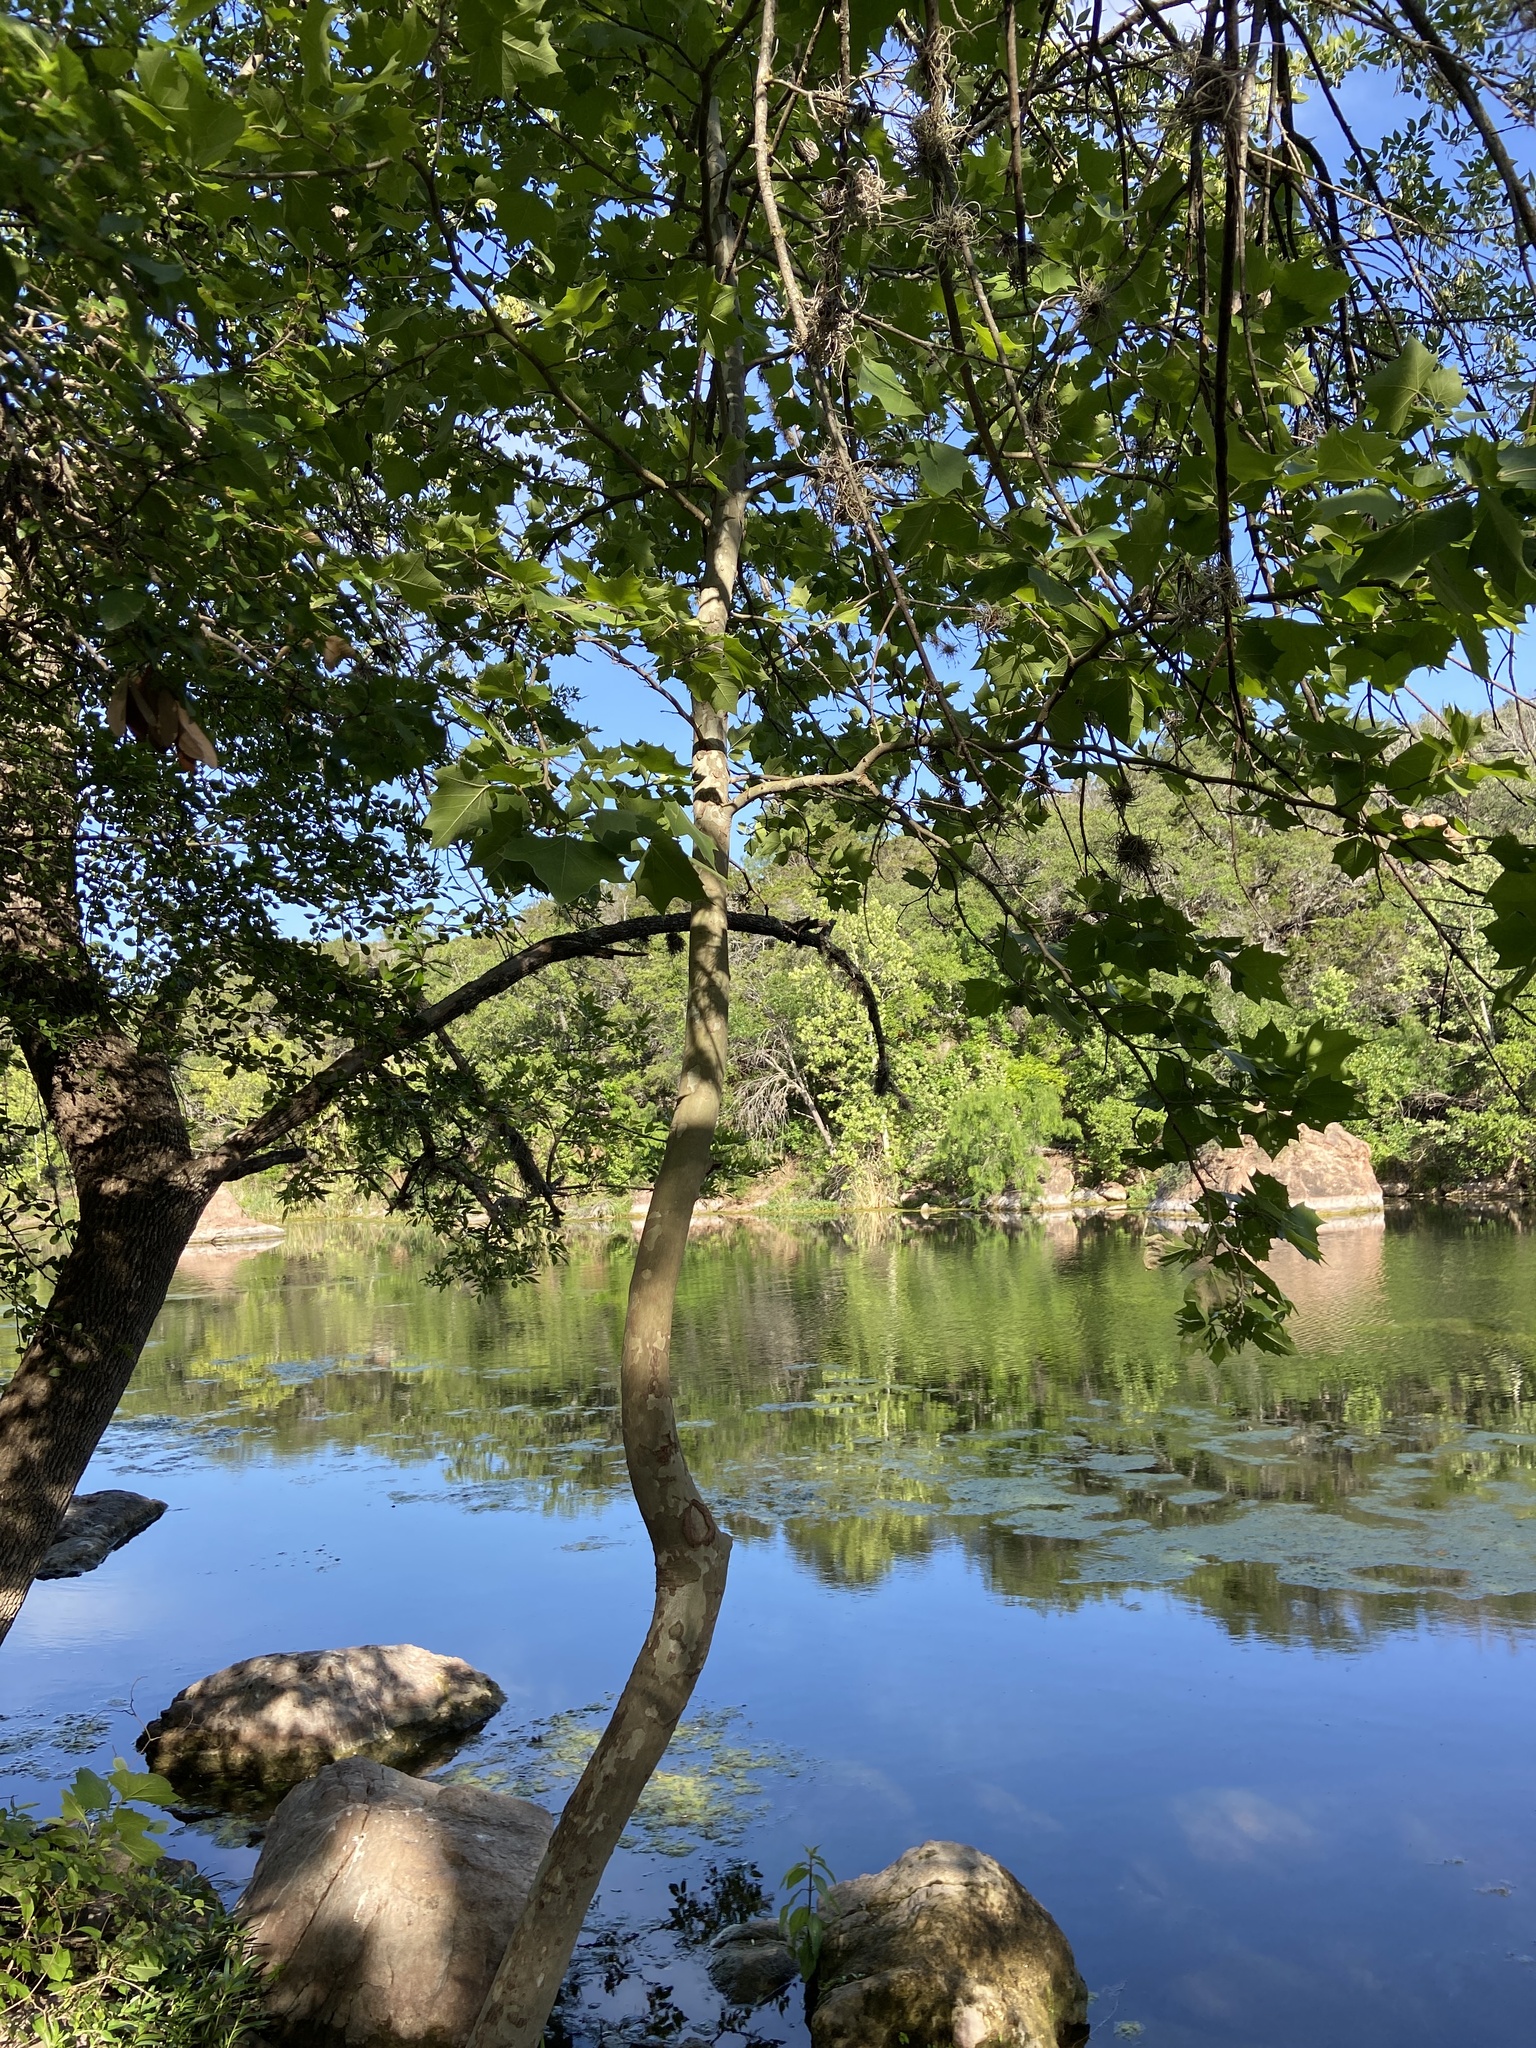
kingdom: Plantae
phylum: Tracheophyta
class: Magnoliopsida
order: Proteales
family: Platanaceae
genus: Platanus
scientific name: Platanus occidentalis
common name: American sycamore
